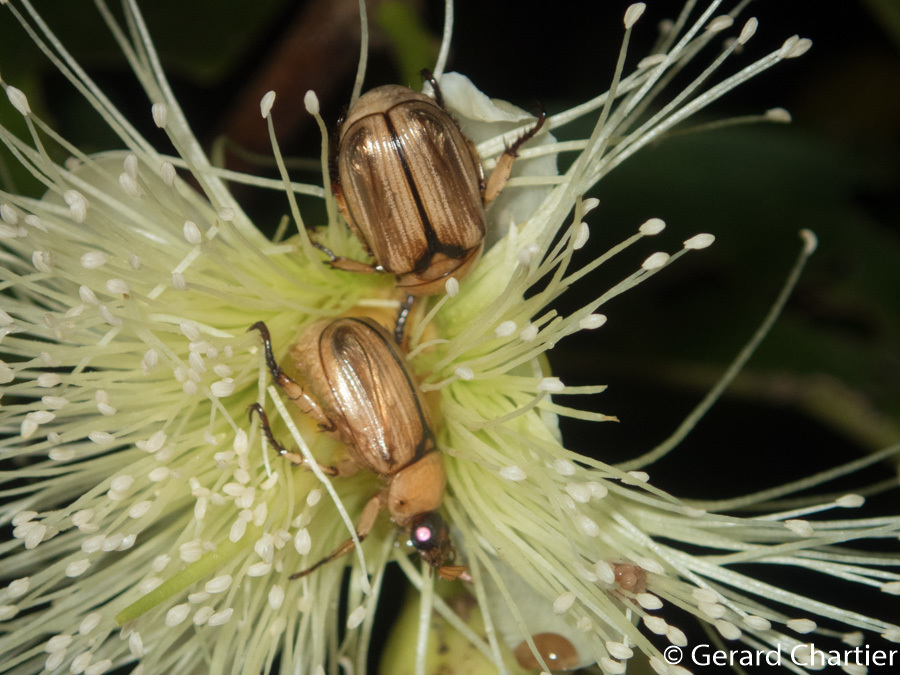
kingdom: Animalia
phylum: Arthropoda
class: Insecta
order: Coleoptera
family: Scarabaeidae
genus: Anomala
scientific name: Anomala pallida
